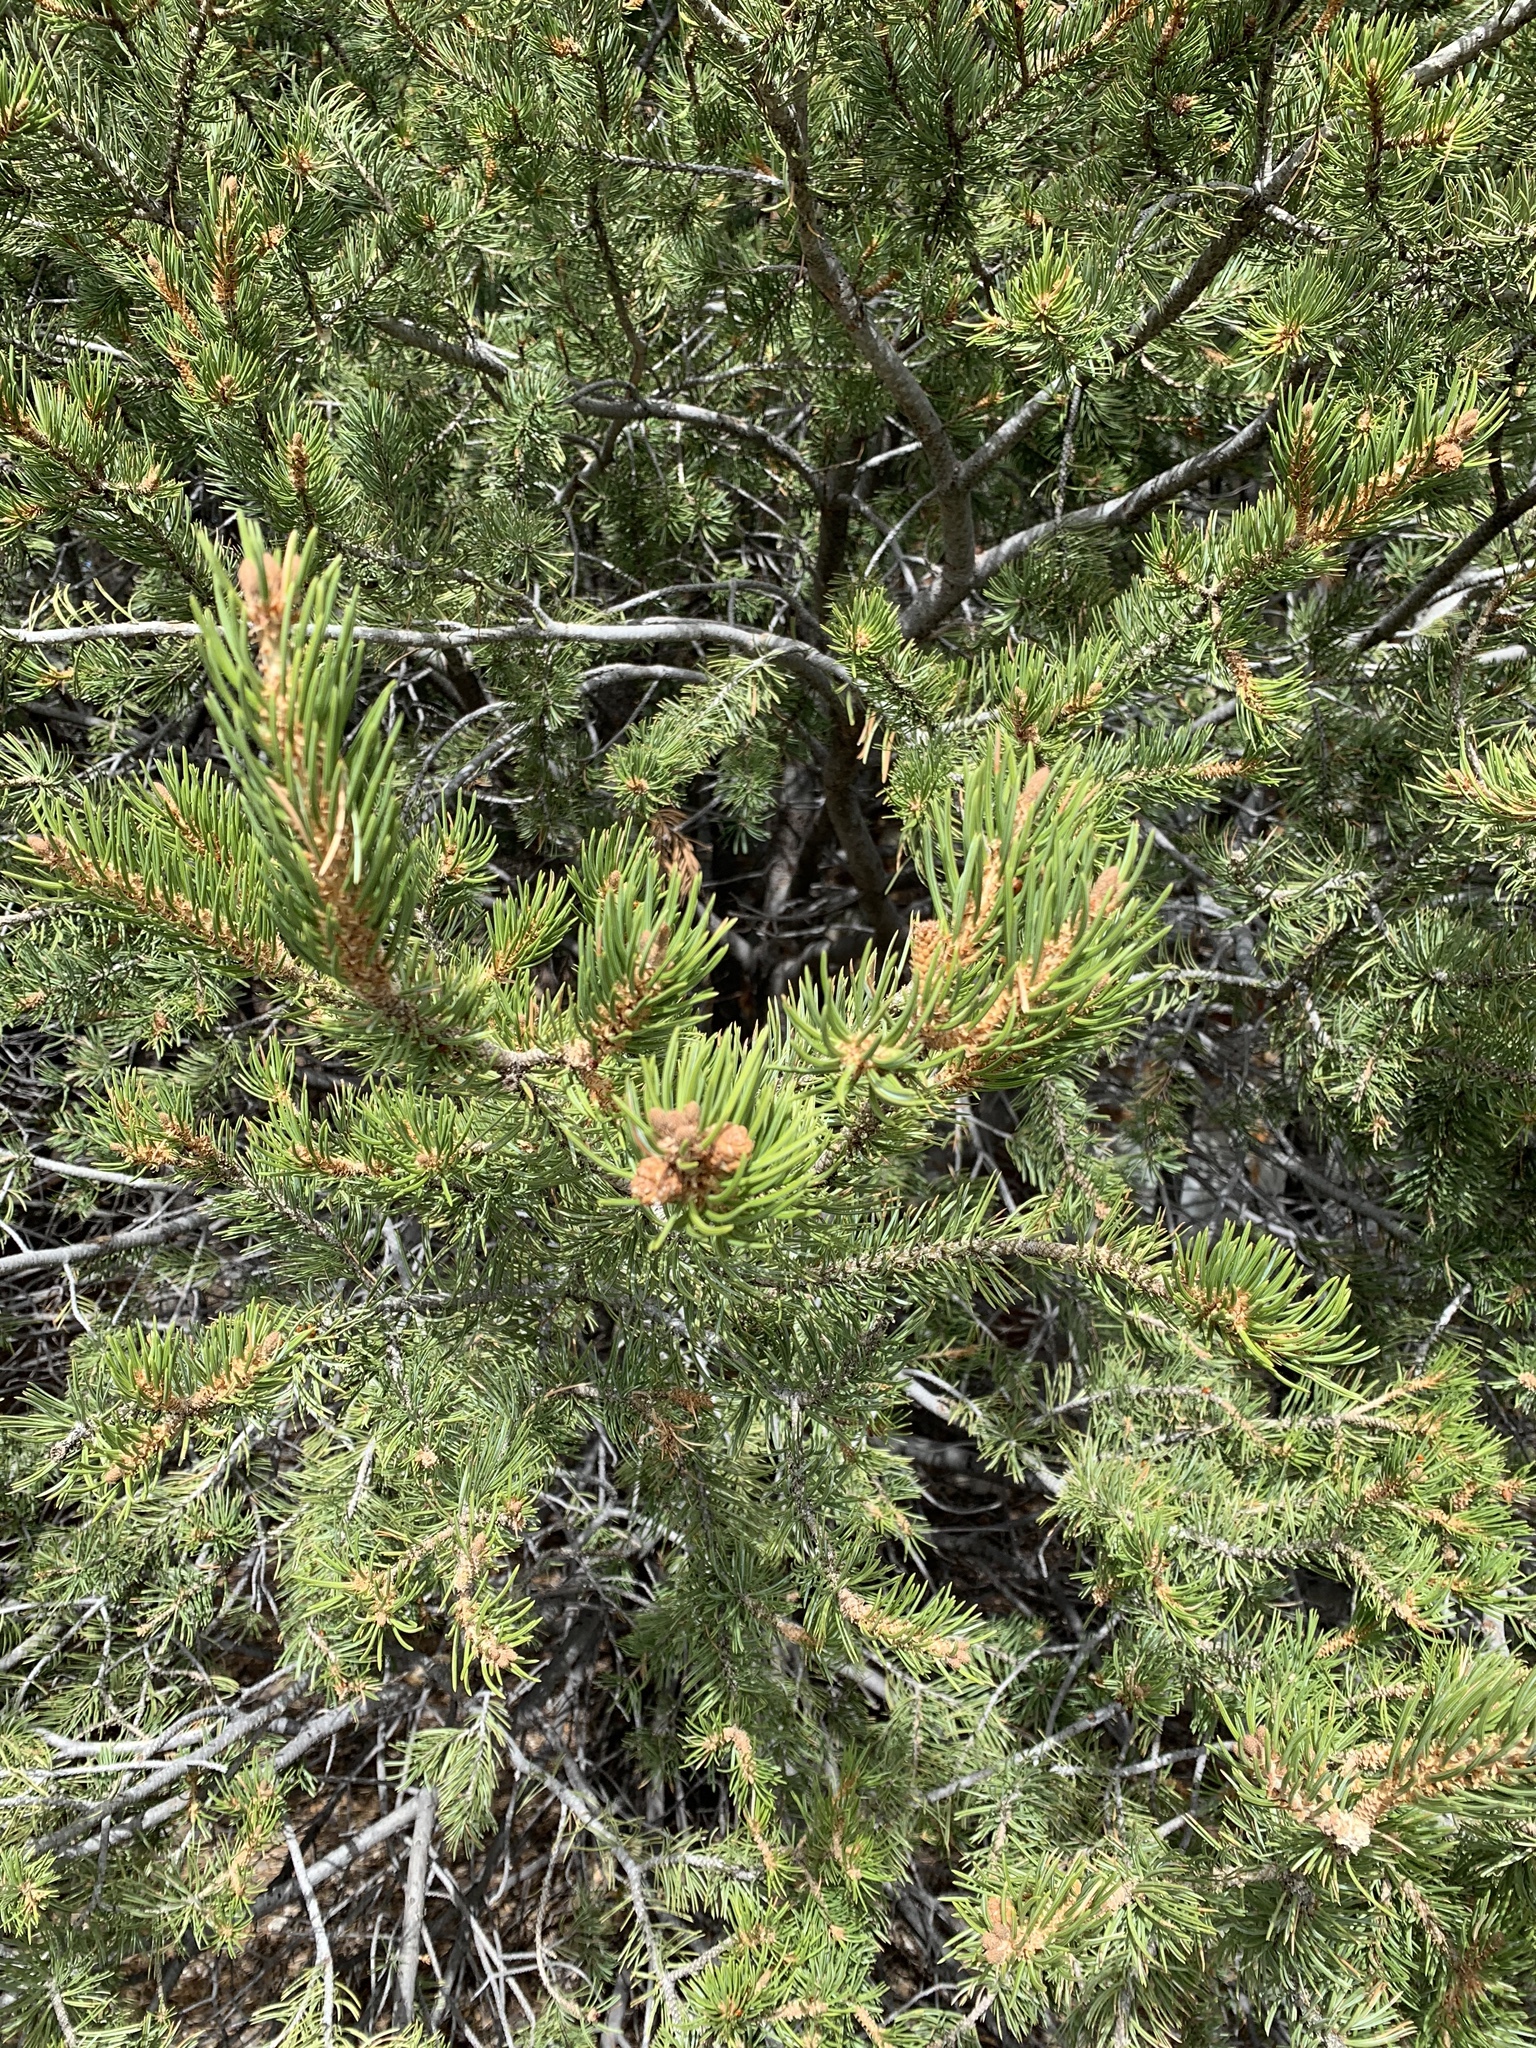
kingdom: Plantae
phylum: Tracheophyta
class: Pinopsida
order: Pinales
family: Pinaceae
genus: Pinus
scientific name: Pinus edulis
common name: Colorado pinyon
